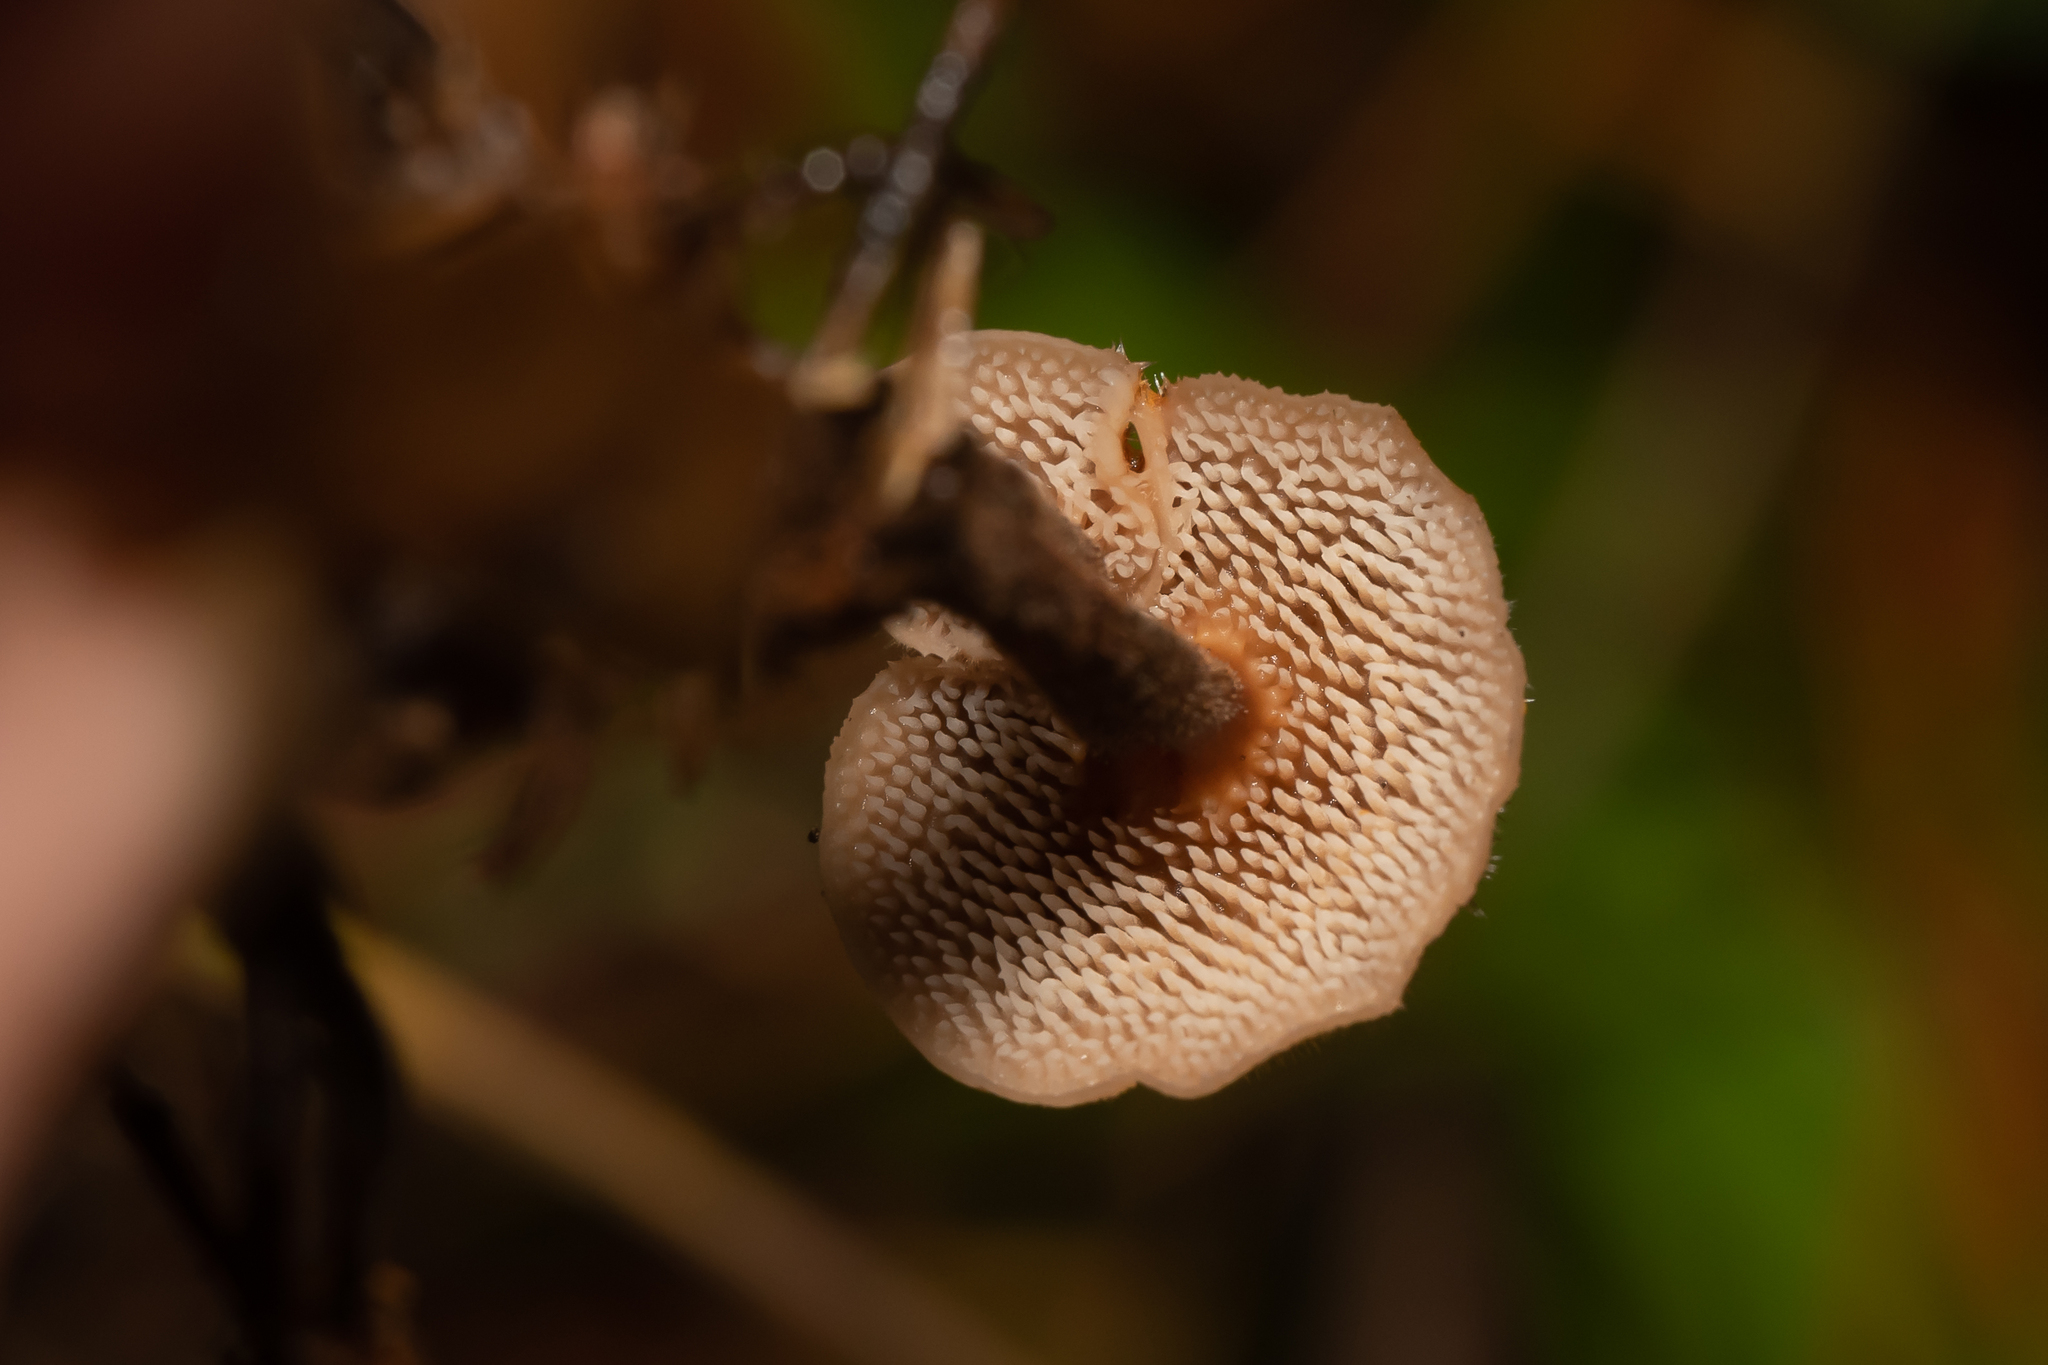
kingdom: Fungi
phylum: Basidiomycota
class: Agaricomycetes
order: Russulales
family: Auriscalpiaceae
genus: Auriscalpium
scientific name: Auriscalpium vulgare
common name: Earpick fungus
